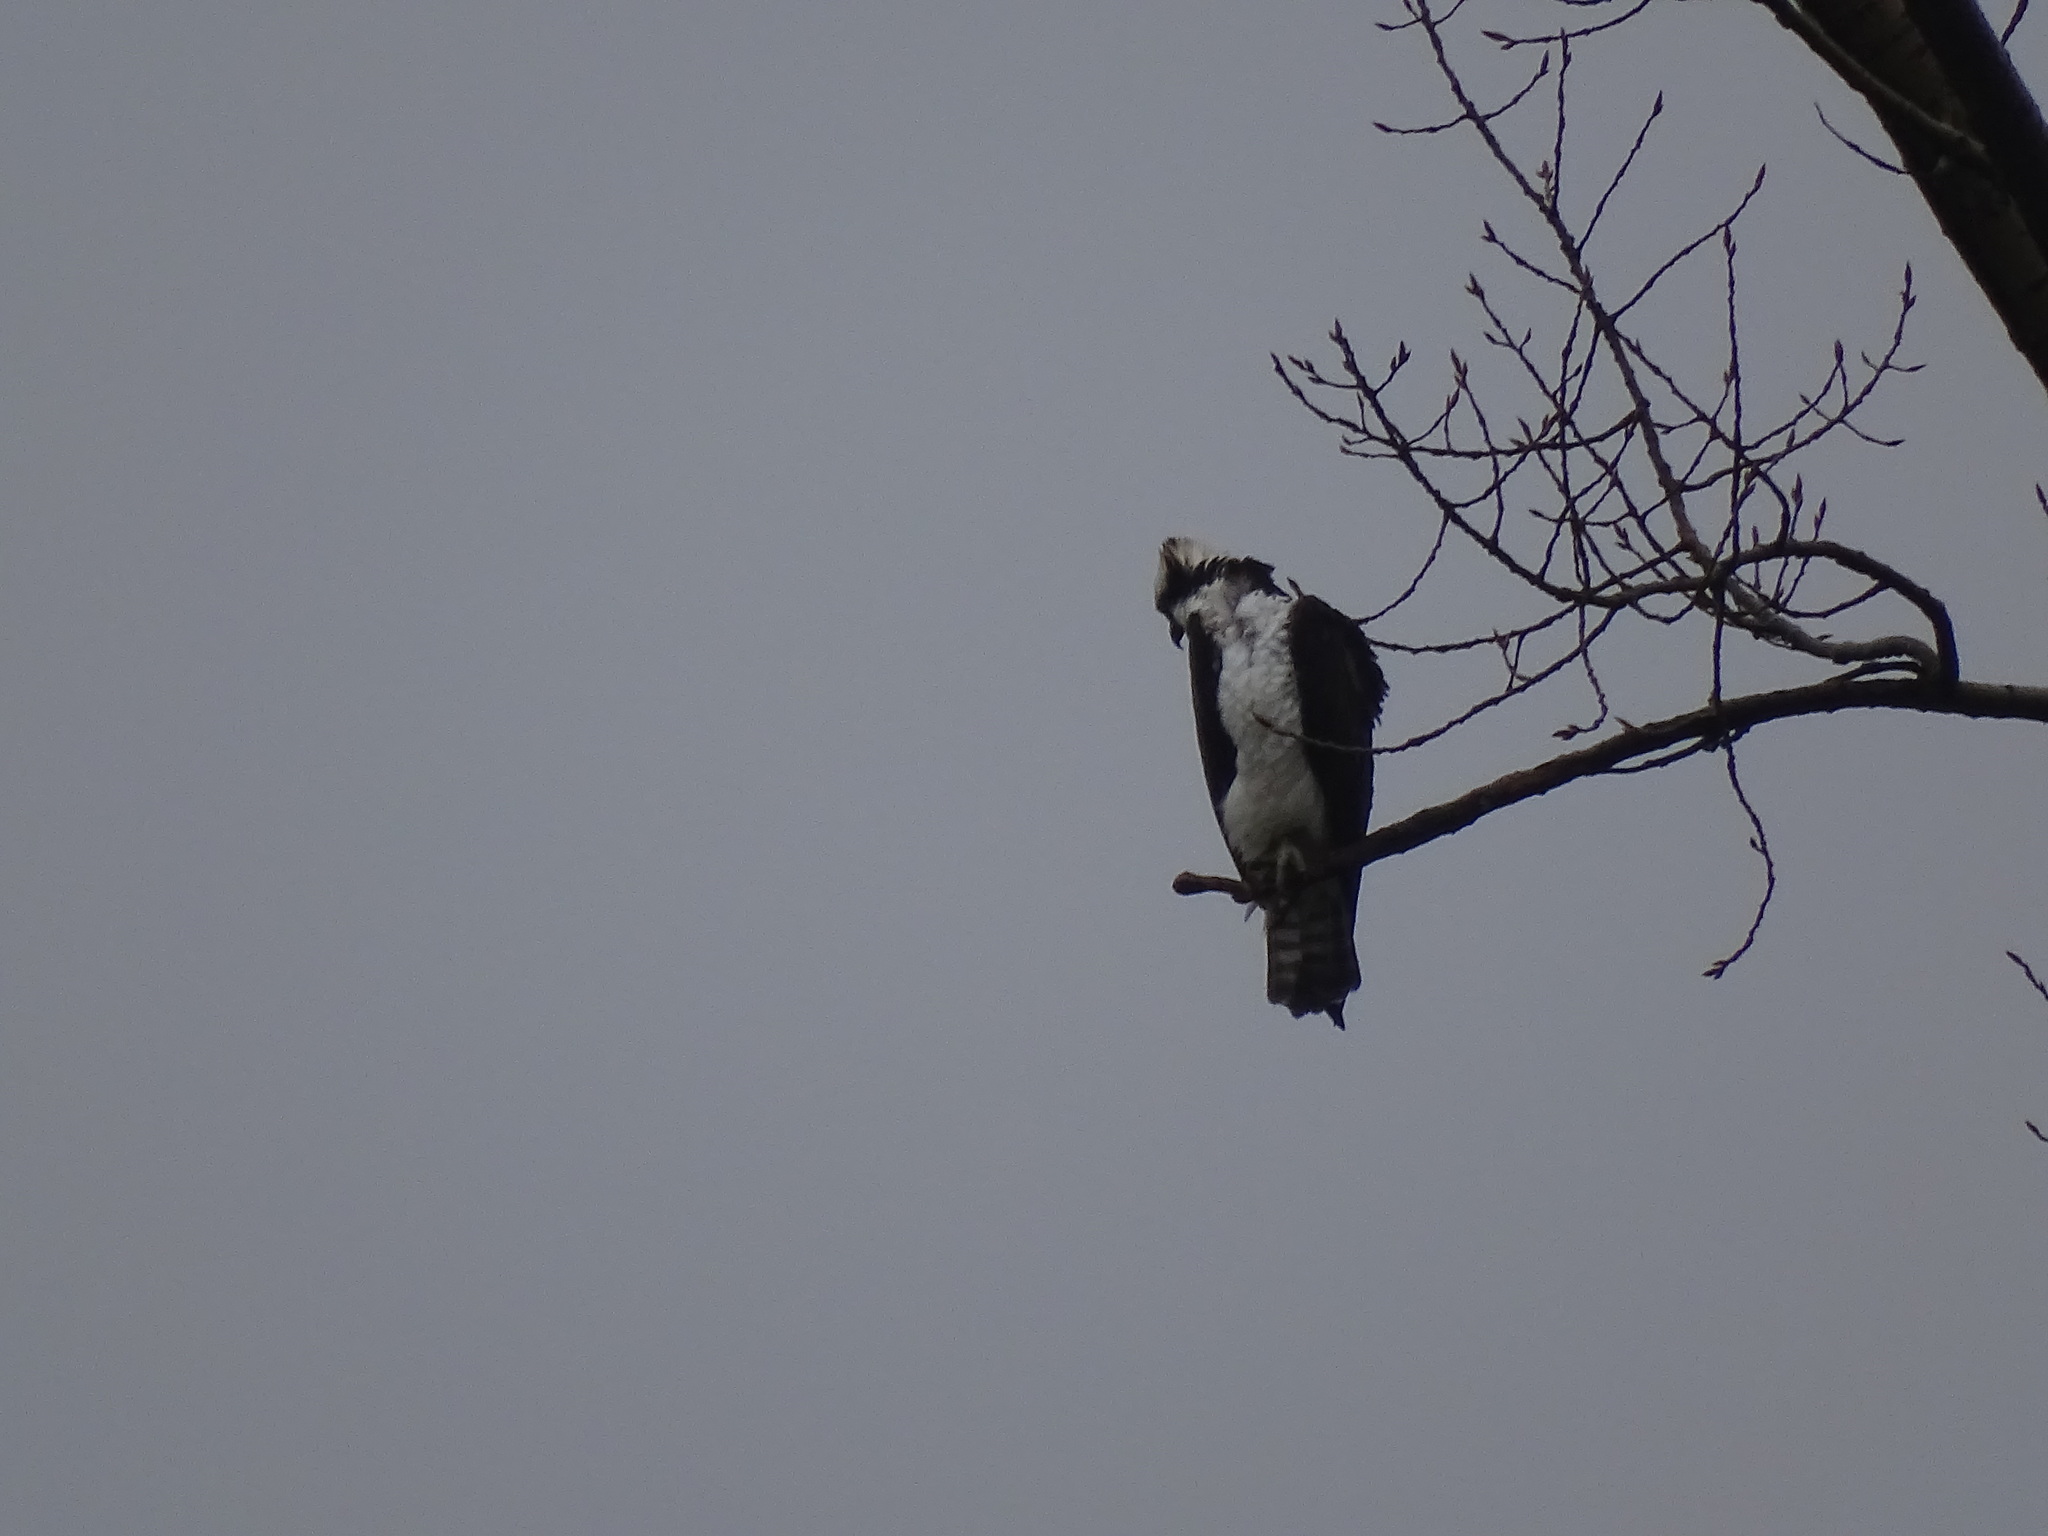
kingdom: Animalia
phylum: Chordata
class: Aves
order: Accipitriformes
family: Pandionidae
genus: Pandion
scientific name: Pandion haliaetus
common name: Osprey
